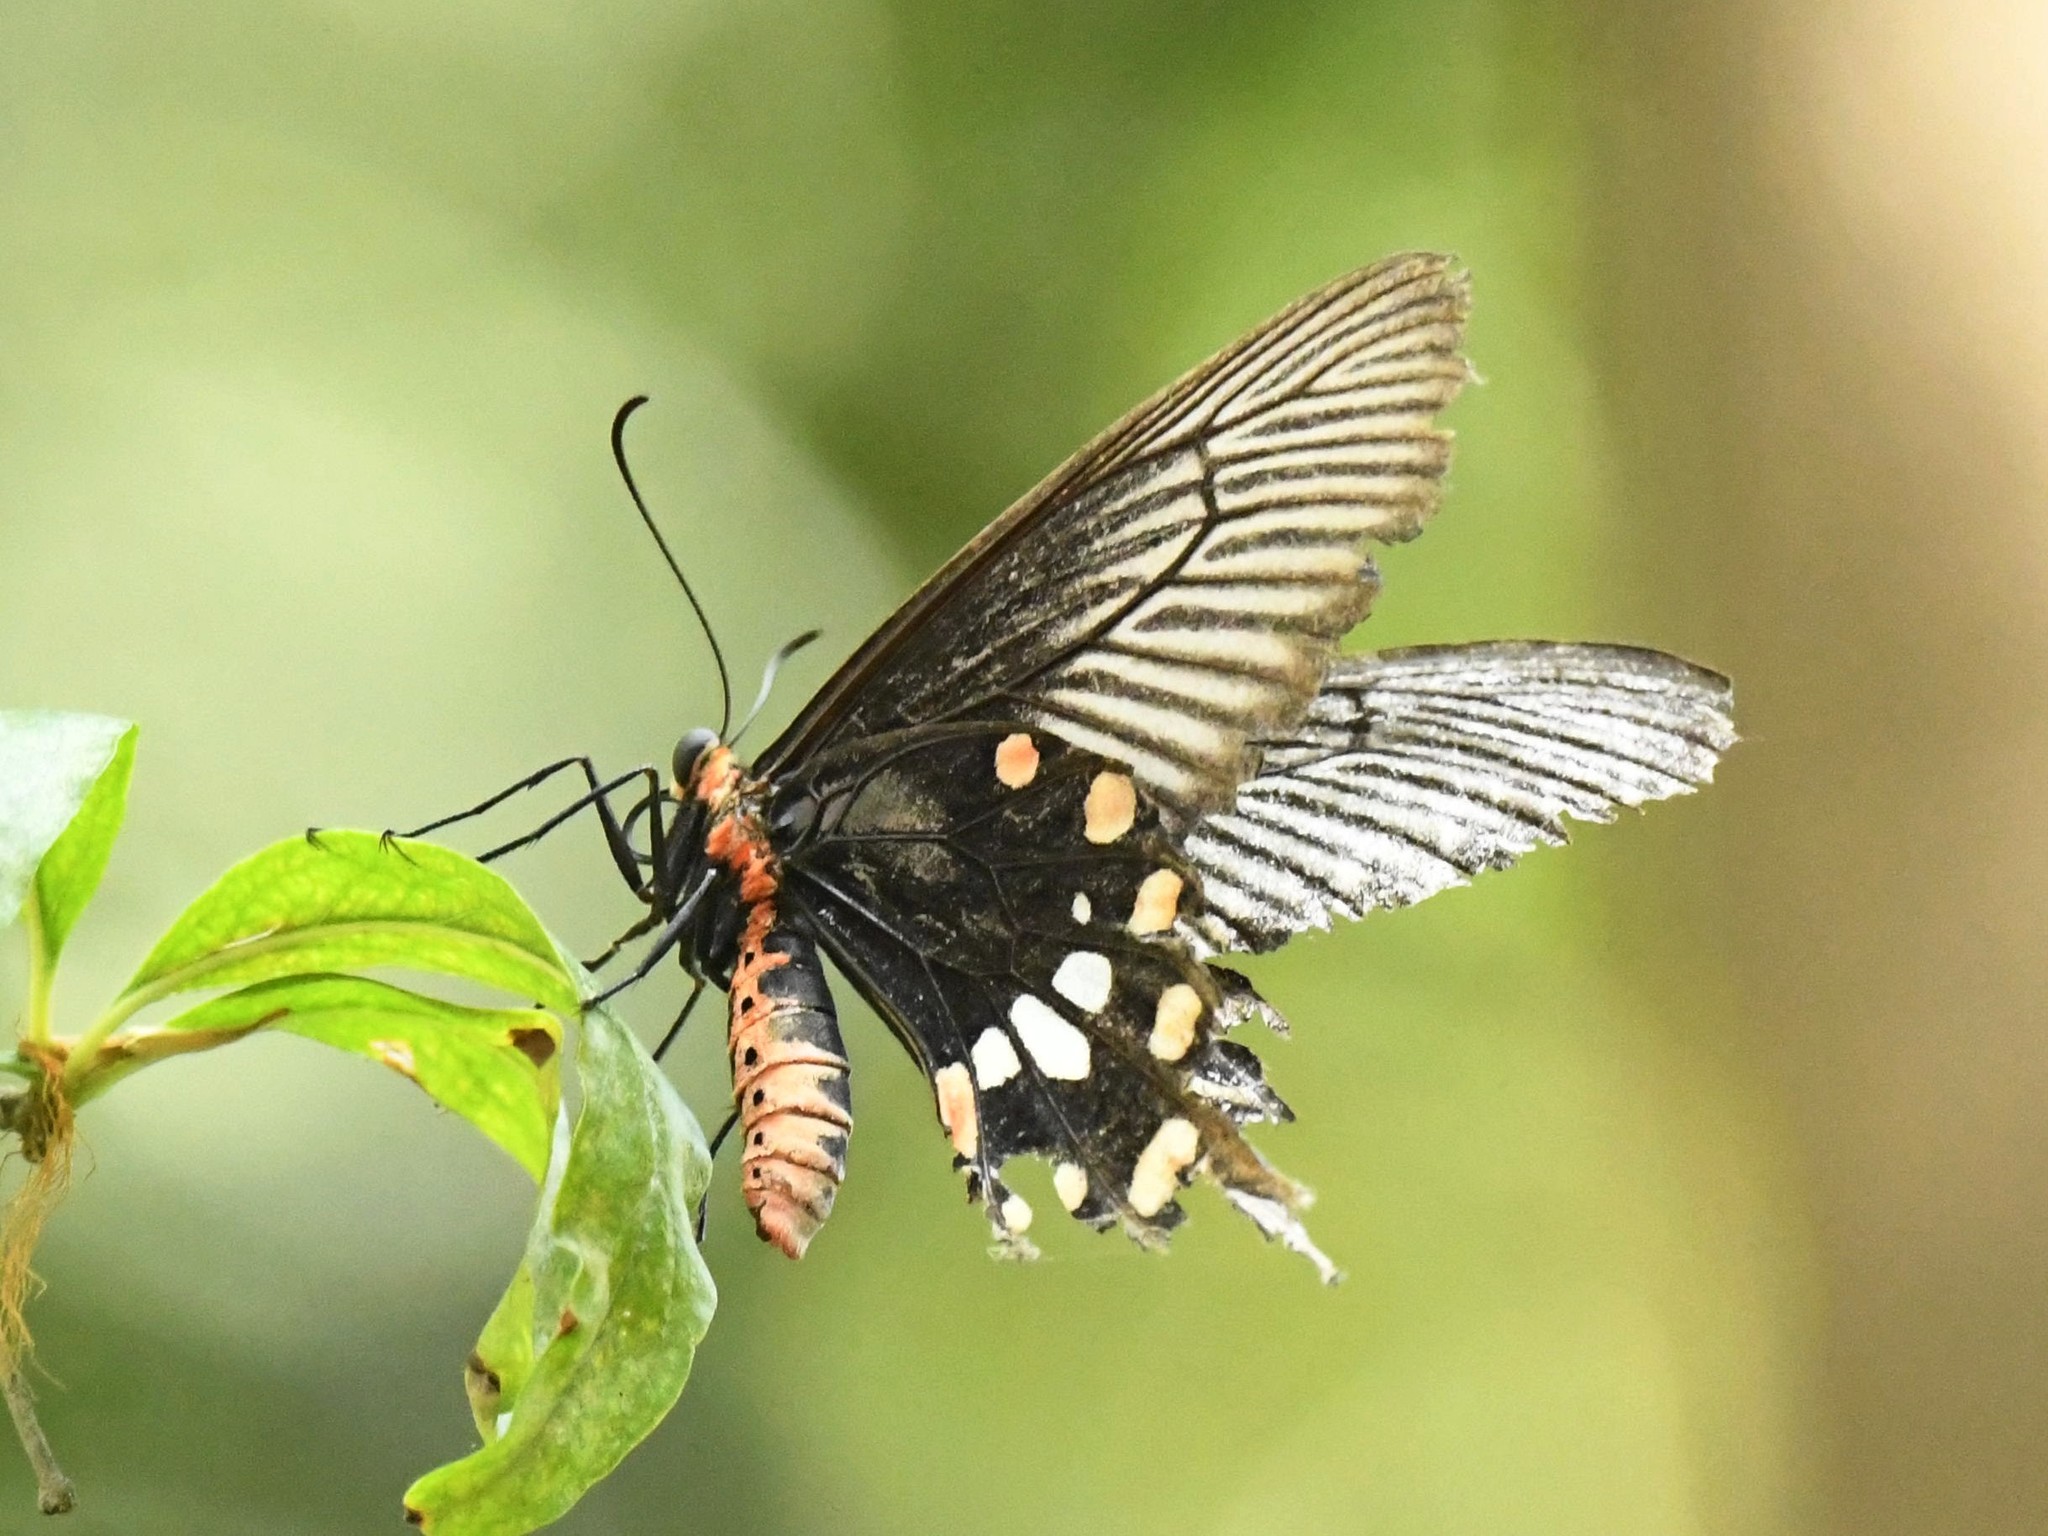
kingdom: Animalia
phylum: Arthropoda
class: Insecta
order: Lepidoptera
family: Papilionidae
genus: Pachliopta
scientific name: Pachliopta aristolochiae
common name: Common rose
